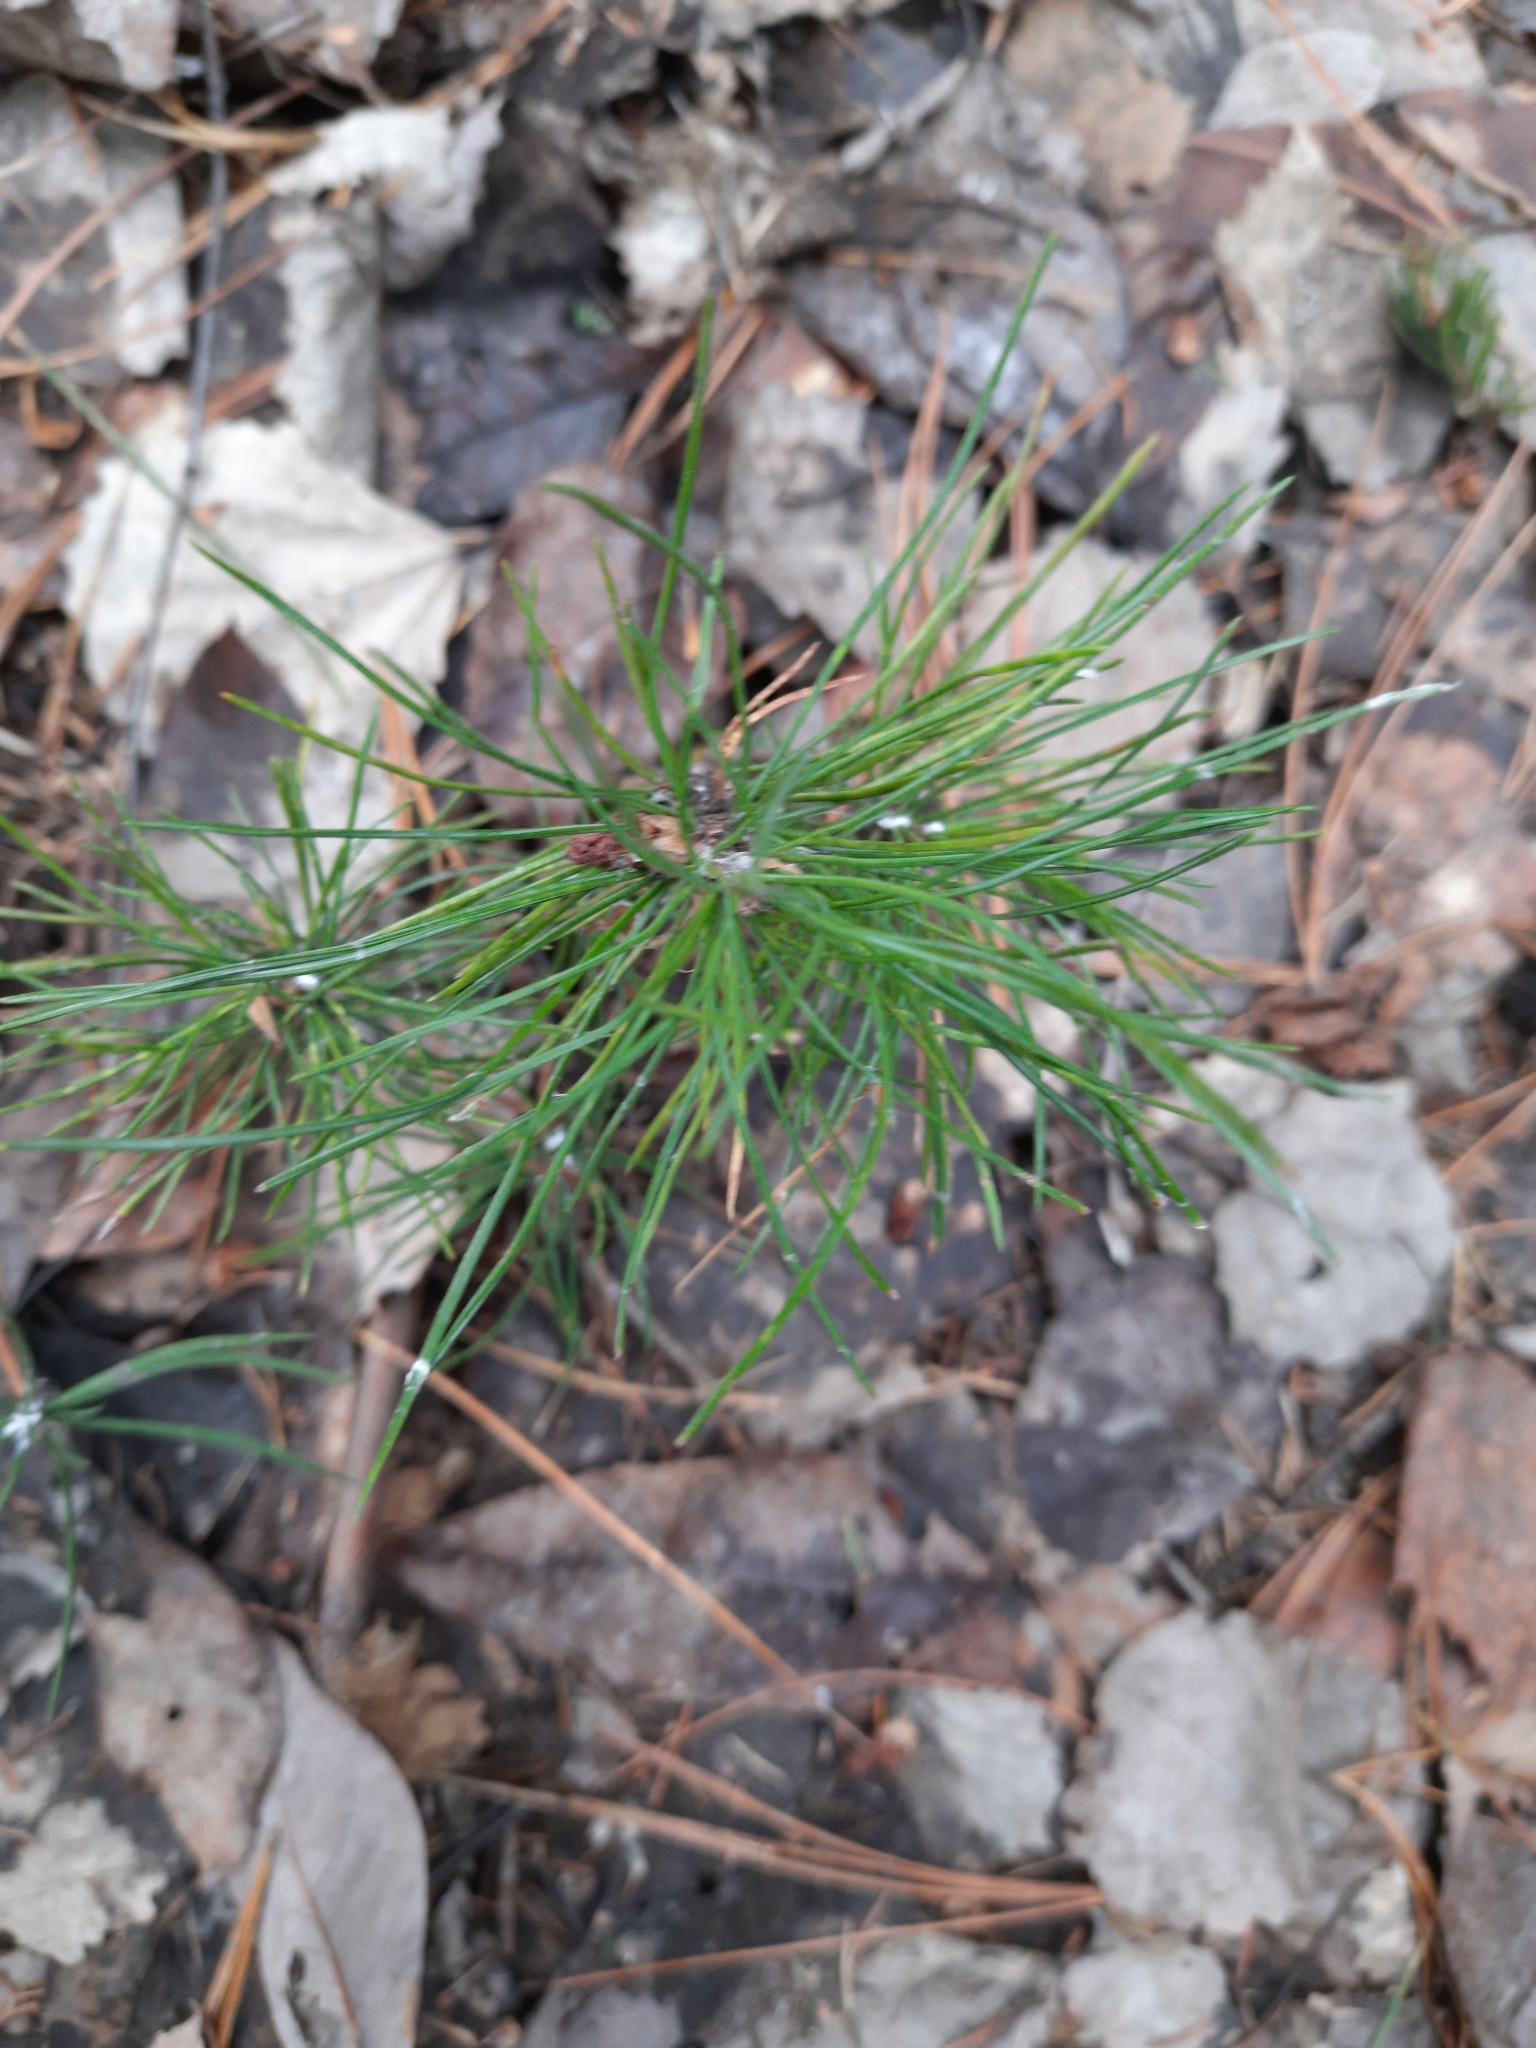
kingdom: Plantae
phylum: Tracheophyta
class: Pinopsida
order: Pinales
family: Pinaceae
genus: Pinus
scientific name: Pinus sibirica
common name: Siberian pine
